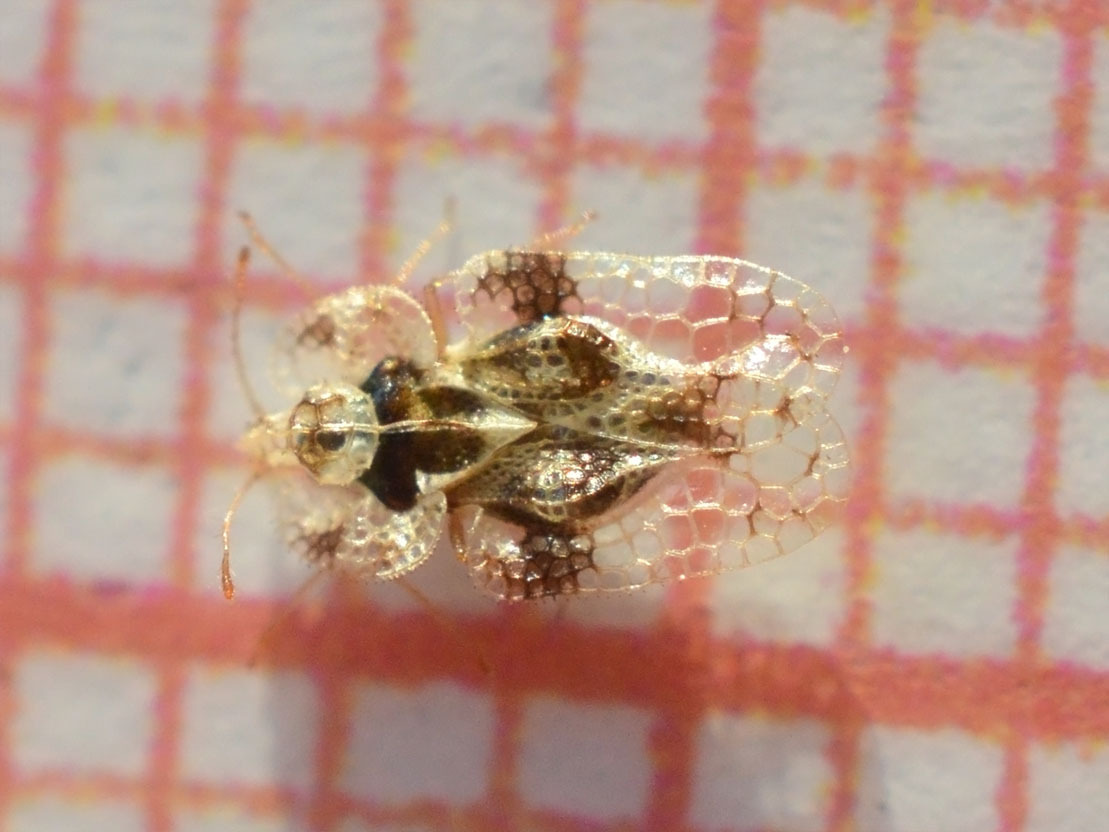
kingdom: Animalia
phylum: Arthropoda
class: Insecta
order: Hemiptera
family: Tingidae
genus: Corythucha
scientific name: Corythucha arcuata
